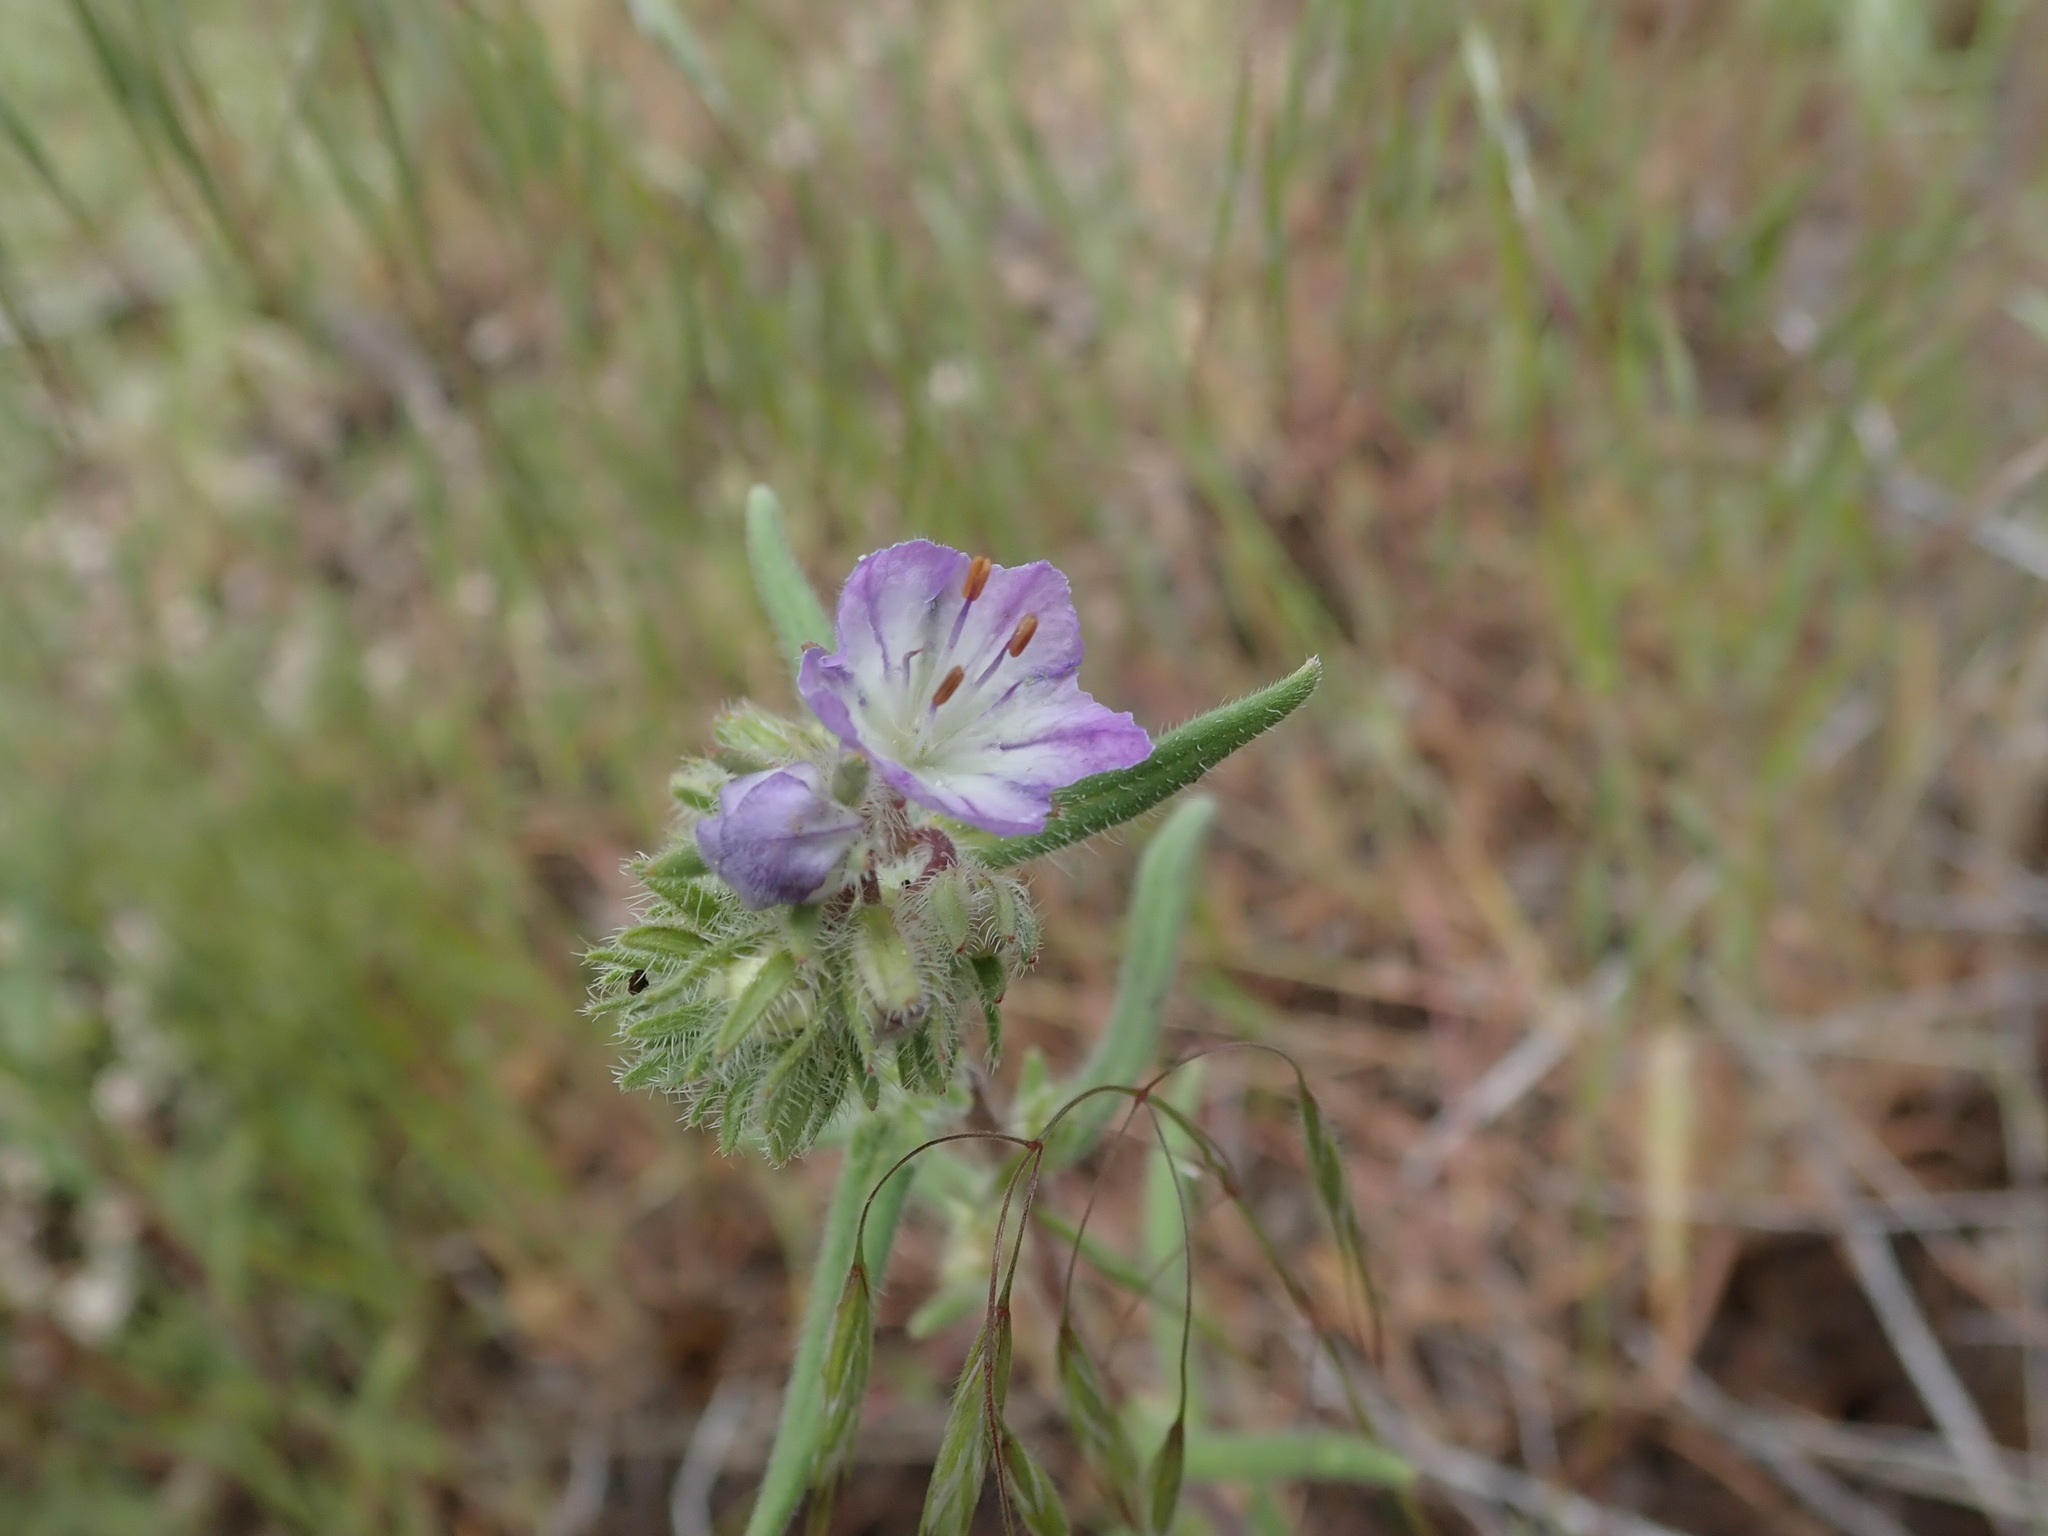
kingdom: Plantae
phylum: Tracheophyta
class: Magnoliopsida
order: Boraginales
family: Hydrophyllaceae
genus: Phacelia
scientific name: Phacelia linearis
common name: Linear-leaved phacelia
